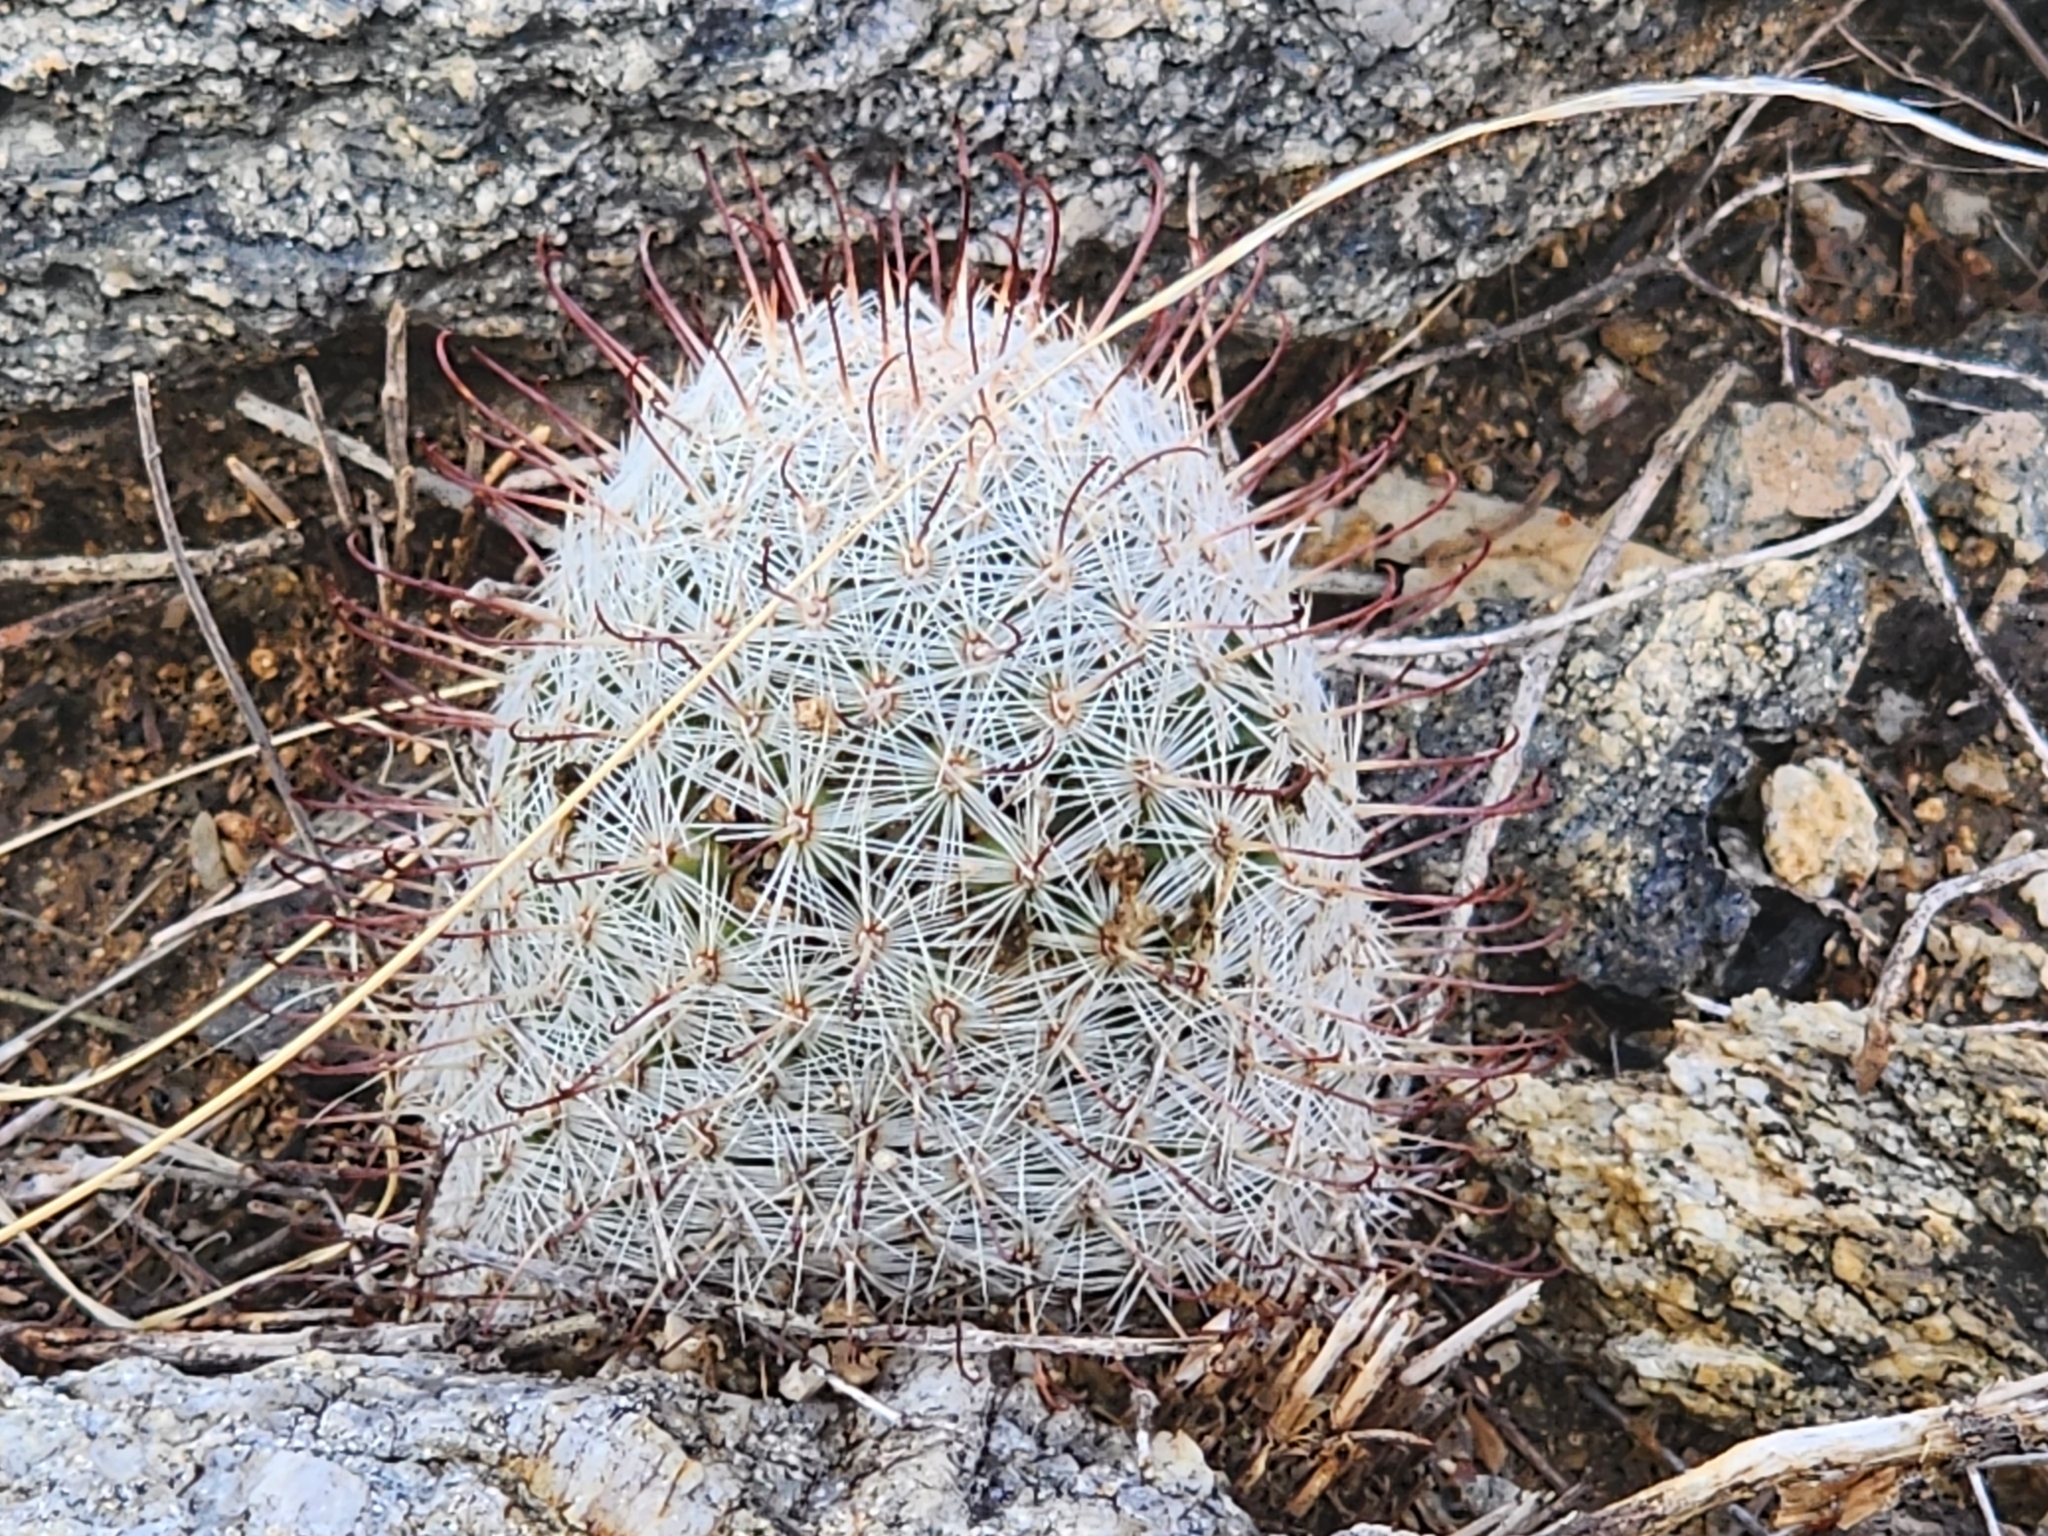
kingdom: Plantae
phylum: Tracheophyta
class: Magnoliopsida
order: Caryophyllales
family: Cactaceae
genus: Cochemiea
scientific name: Cochemiea grahamii
